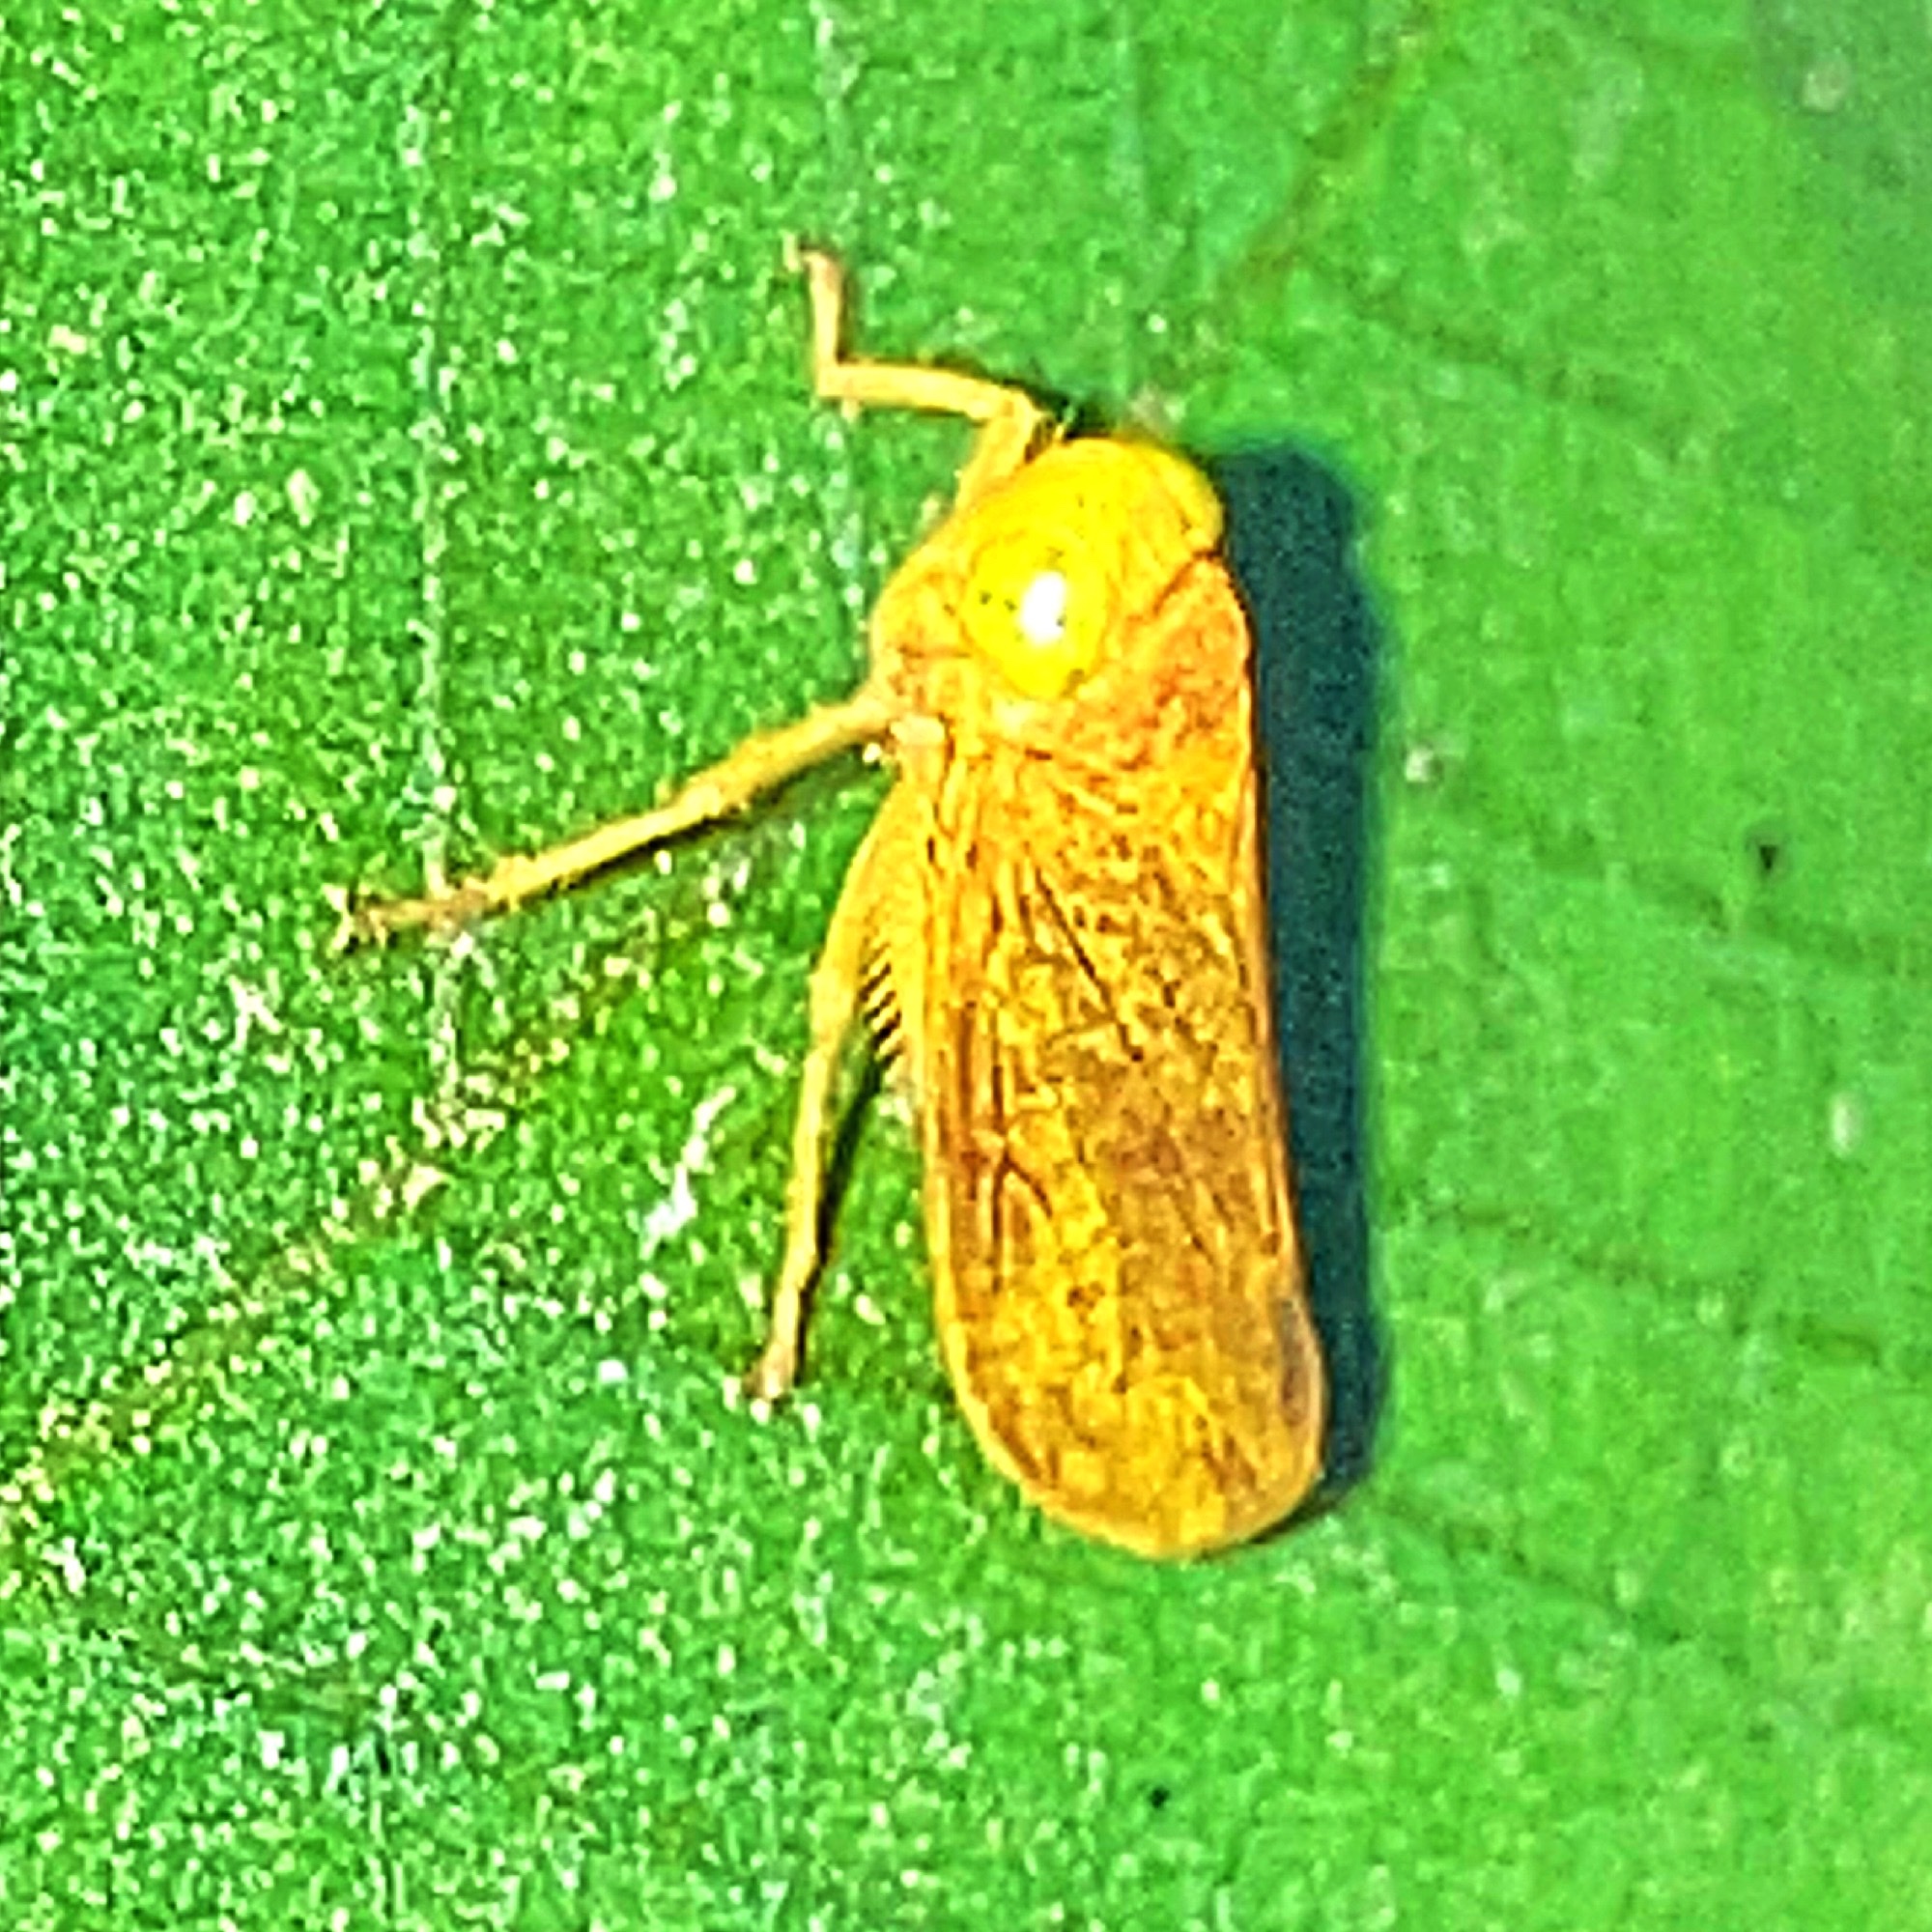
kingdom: Animalia
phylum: Arthropoda
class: Insecta
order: Hemiptera
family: Cicadellidae
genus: Jikradia
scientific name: Jikradia olitoria
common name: Coppery leafhopper
